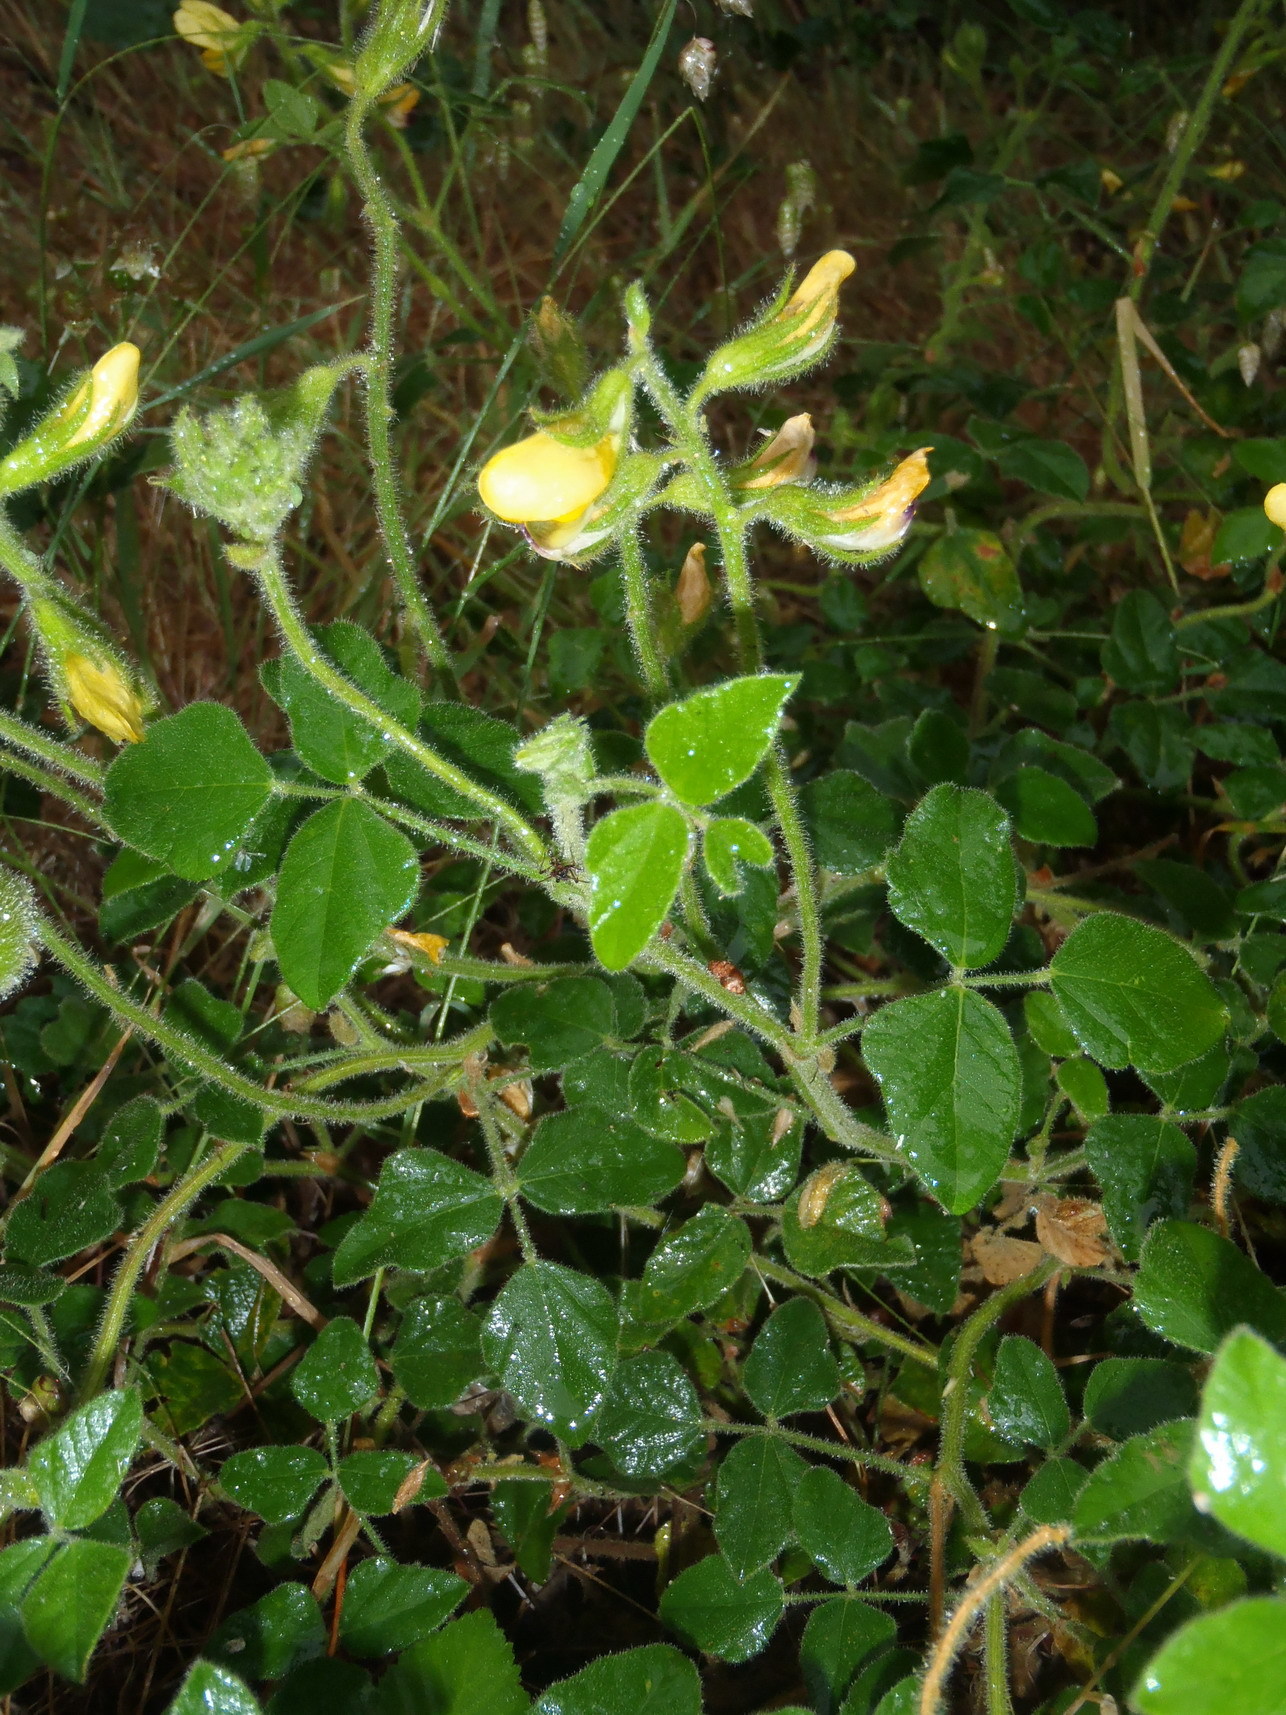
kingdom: Plantae
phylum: Tracheophyta
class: Magnoliopsida
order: Fabales
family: Fabaceae
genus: Bolusafra
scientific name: Bolusafra bituminosa
